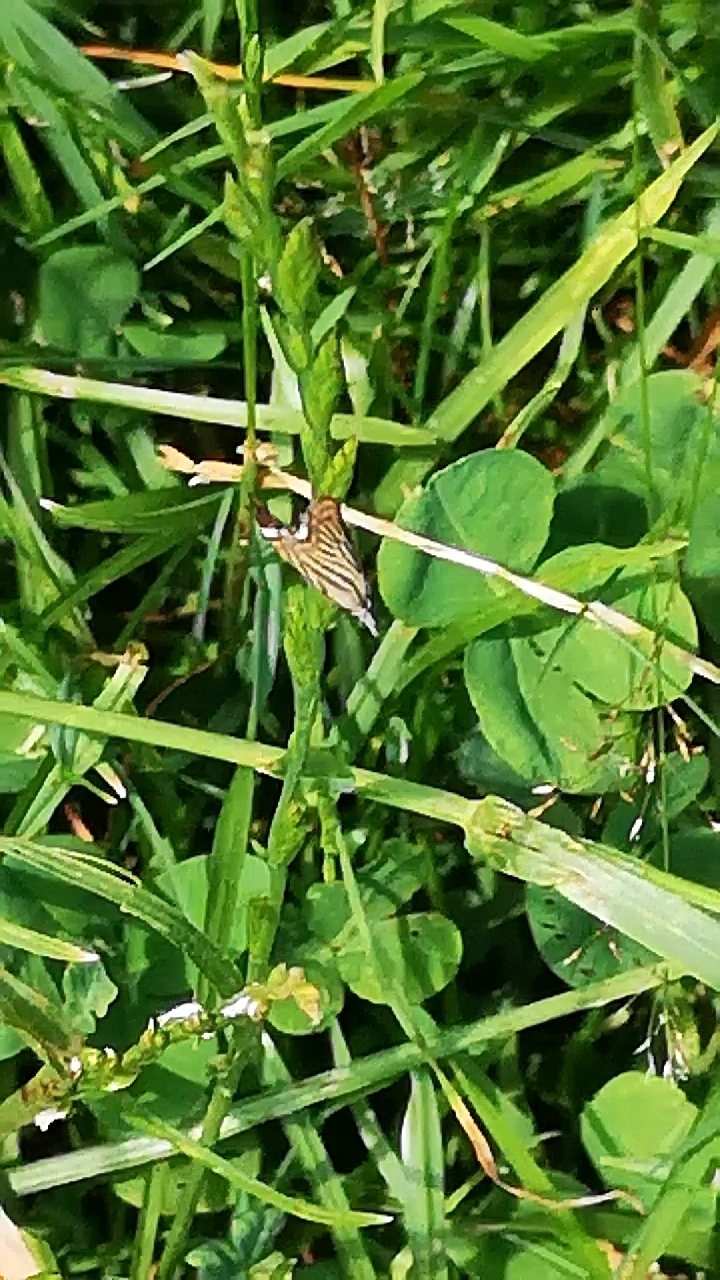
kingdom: Animalia
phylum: Arthropoda
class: Insecta
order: Lepidoptera
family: Crambidae
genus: Chrysoteuchia
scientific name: Chrysoteuchia culmella
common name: Garden grass-veneer
